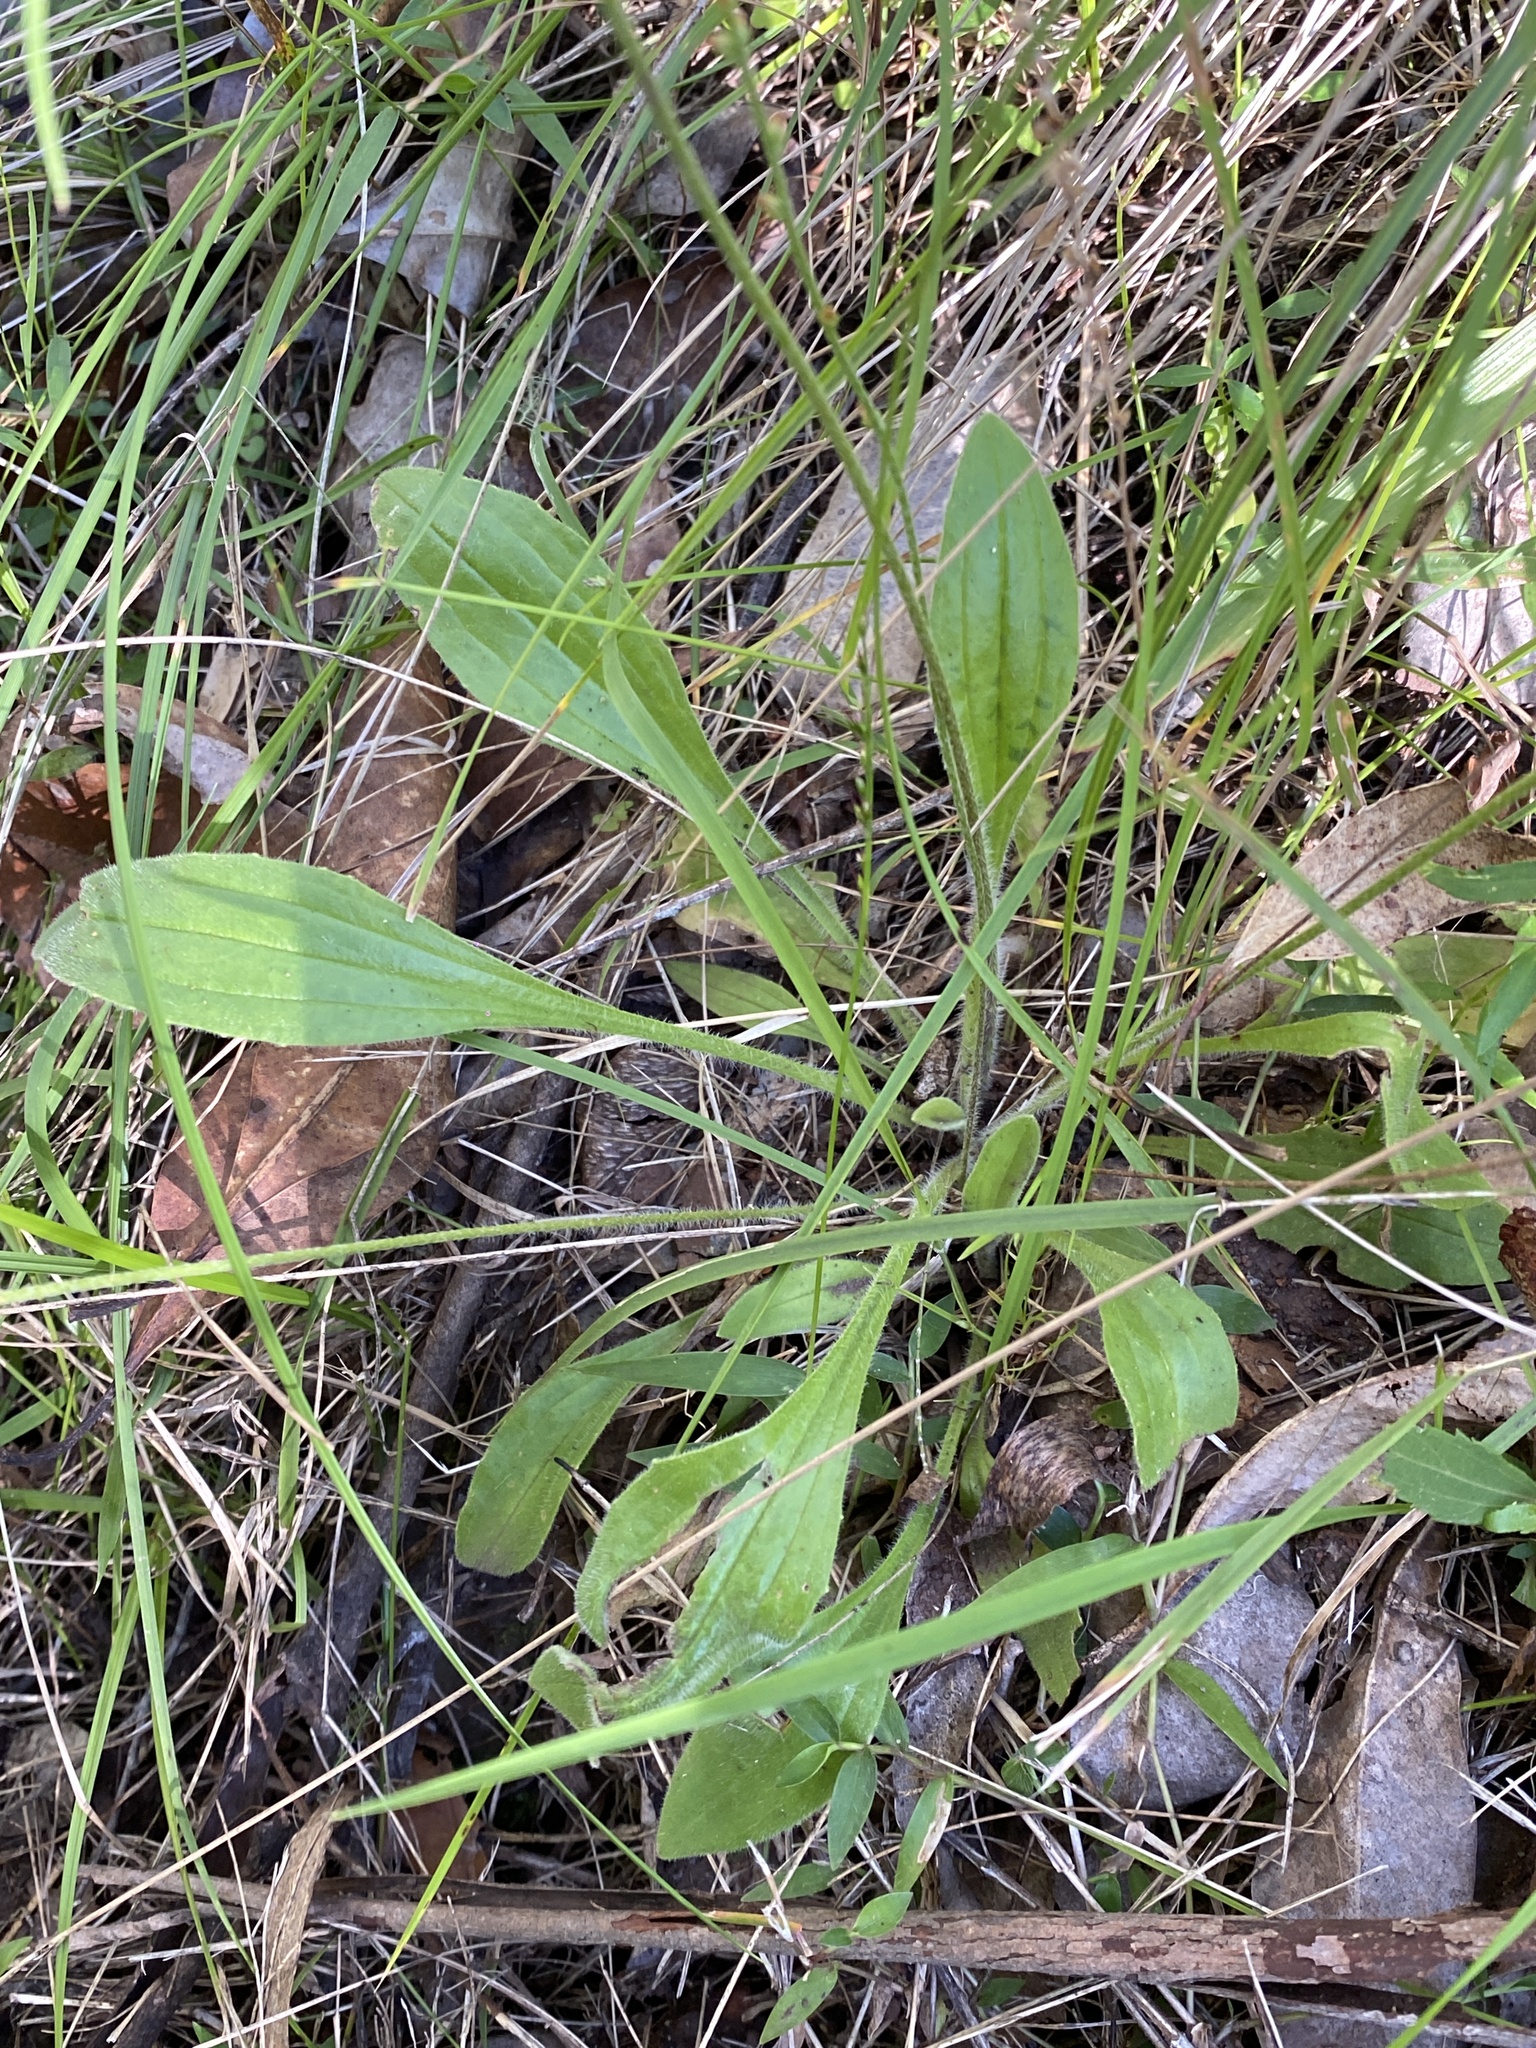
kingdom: Plantae
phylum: Tracheophyta
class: Magnoliopsida
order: Lamiales
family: Plantaginaceae
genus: Plantago
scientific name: Plantago debilis
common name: Weak plantain
